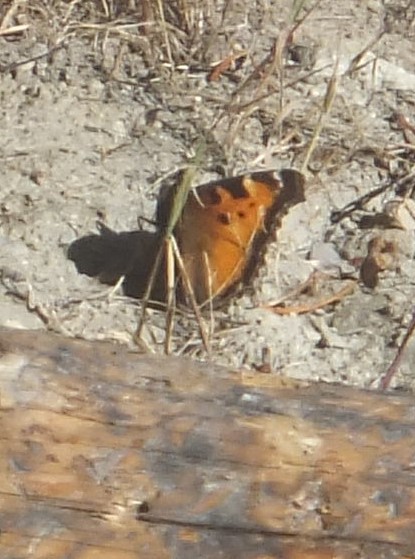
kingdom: Animalia
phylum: Arthropoda
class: Insecta
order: Lepidoptera
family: Nymphalidae
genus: Nymphalis
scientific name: Nymphalis californica
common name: California tortoiseshell
